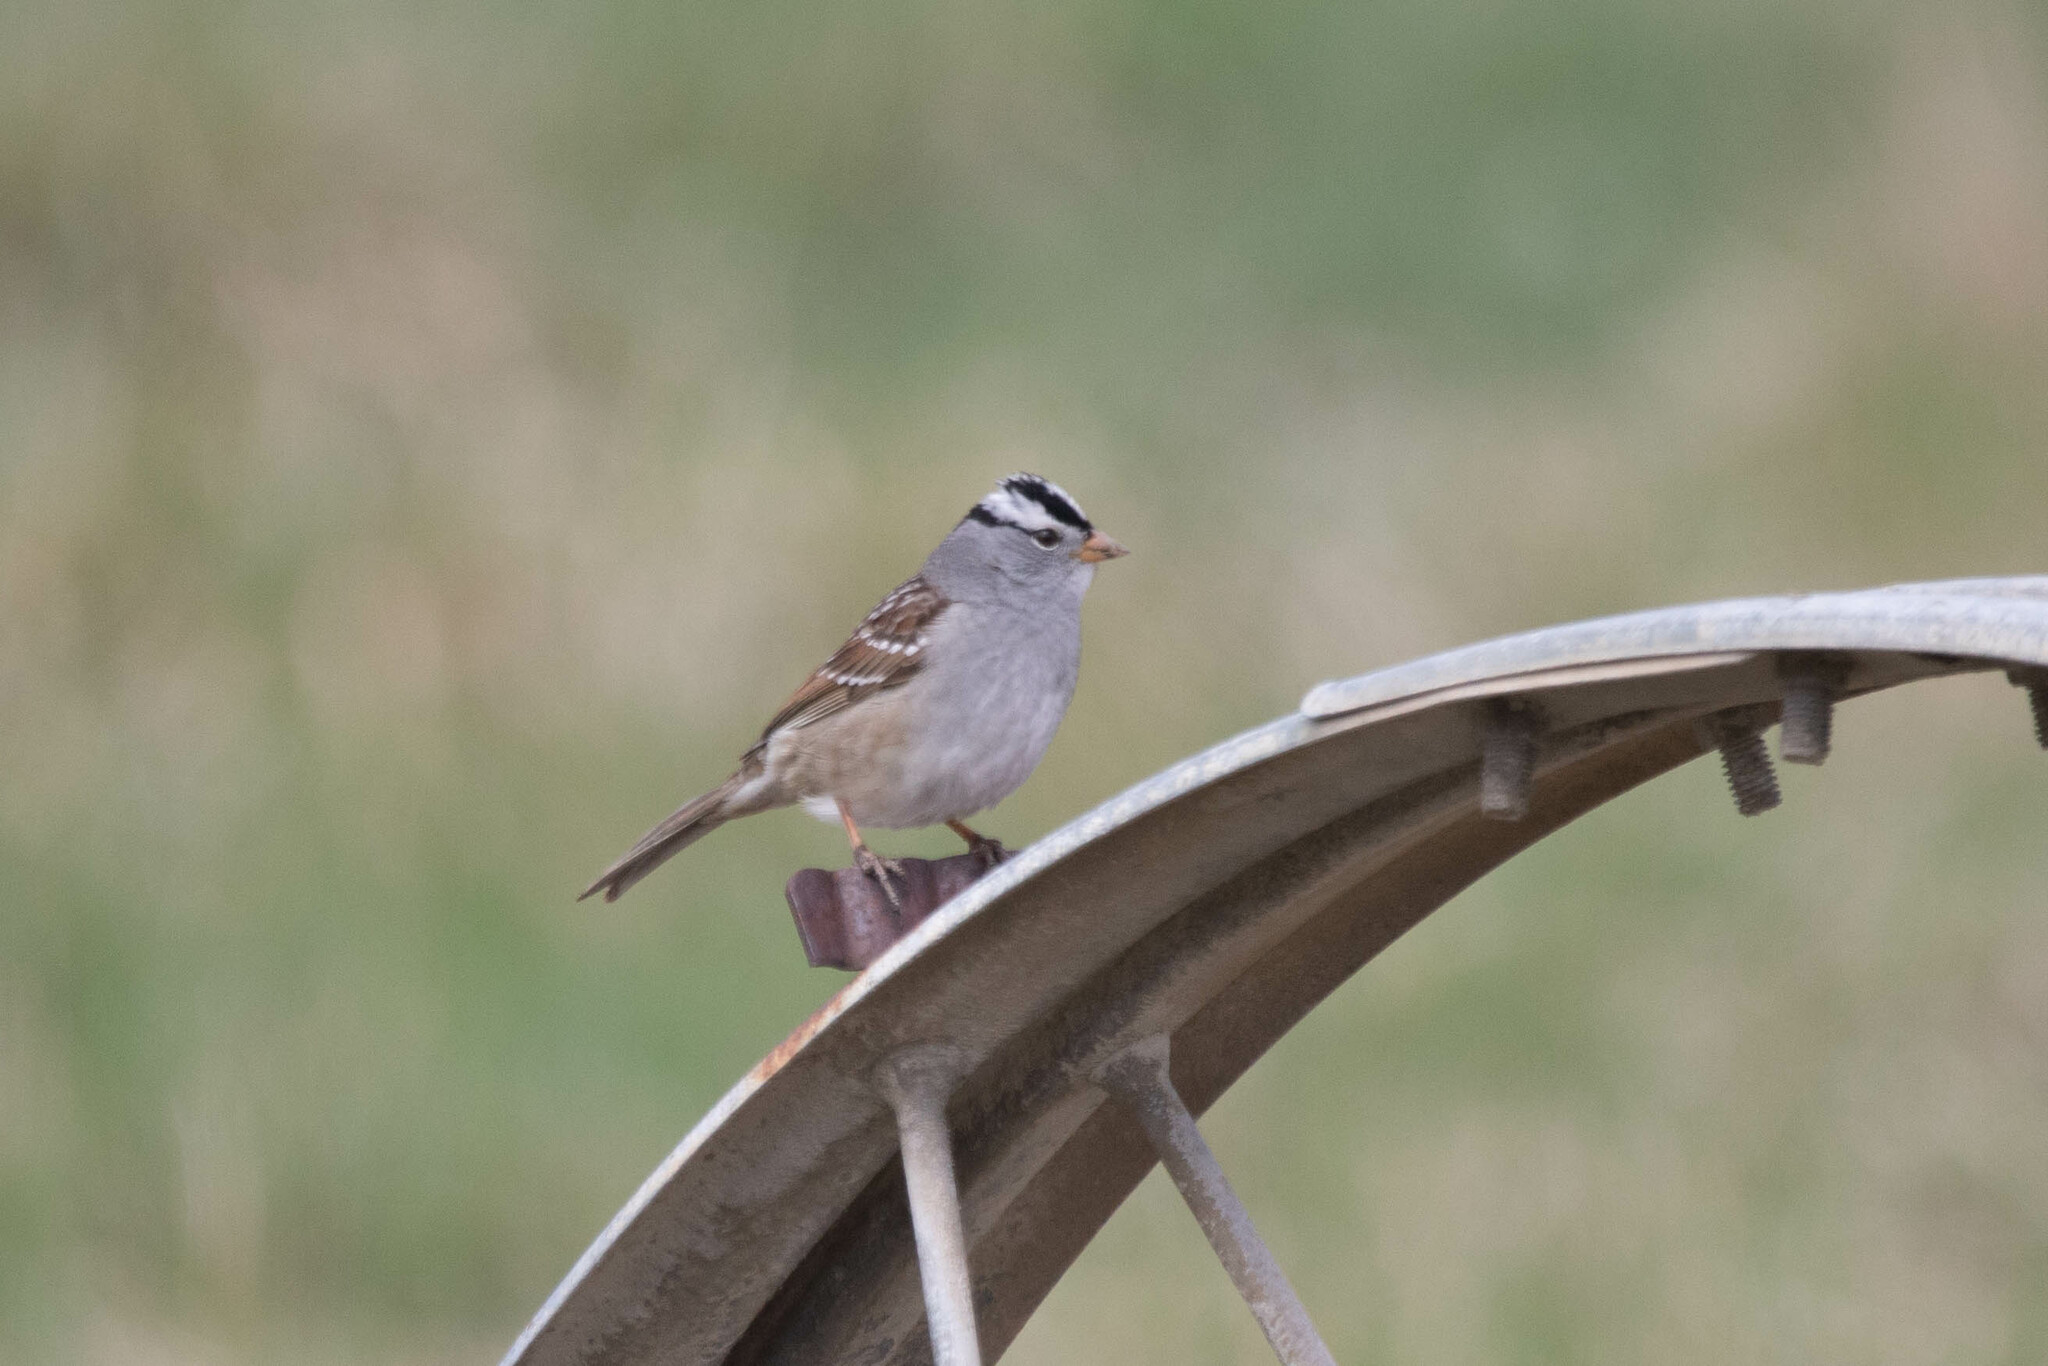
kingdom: Animalia
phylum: Chordata
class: Aves
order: Passeriformes
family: Passerellidae
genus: Zonotrichia
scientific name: Zonotrichia leucophrys
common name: White-crowned sparrow
